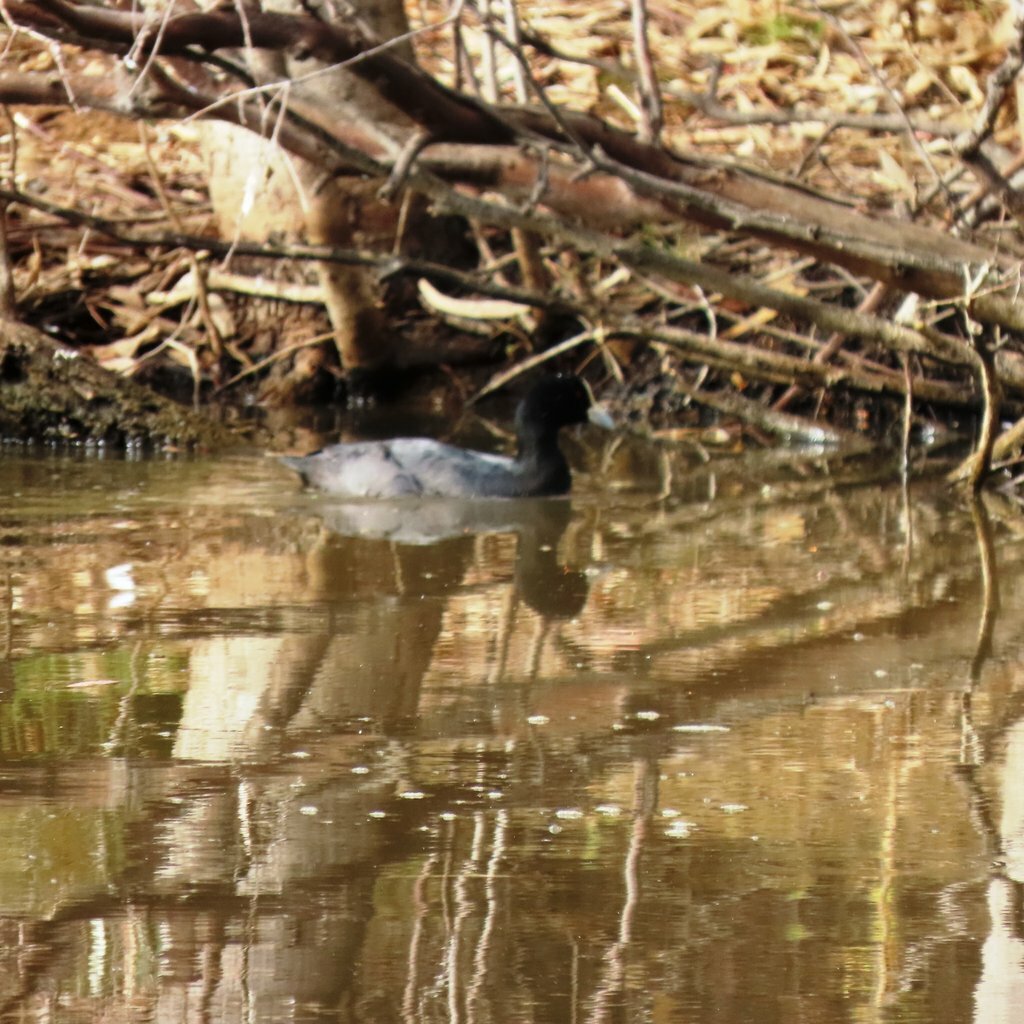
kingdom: Animalia
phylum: Chordata
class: Aves
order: Gruiformes
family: Rallidae
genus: Fulica
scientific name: Fulica atra
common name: Eurasian coot
